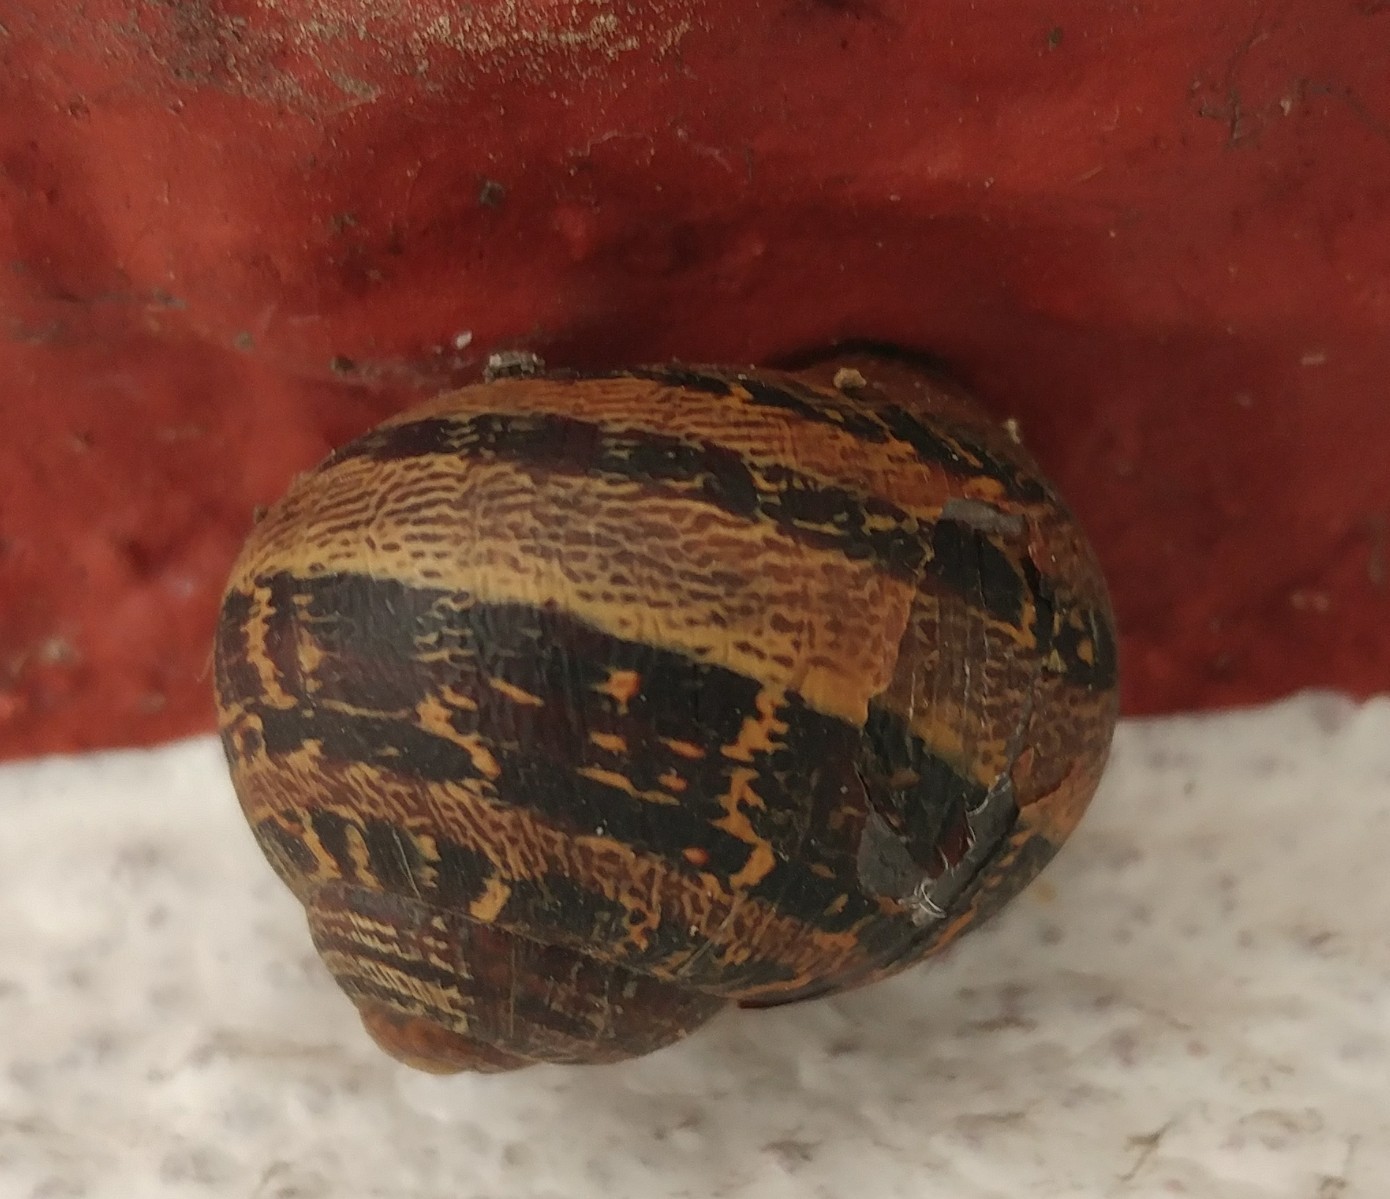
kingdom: Animalia
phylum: Mollusca
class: Gastropoda
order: Stylommatophora
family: Helicidae
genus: Cornu
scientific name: Cornu aspersum
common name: Brown garden snail
